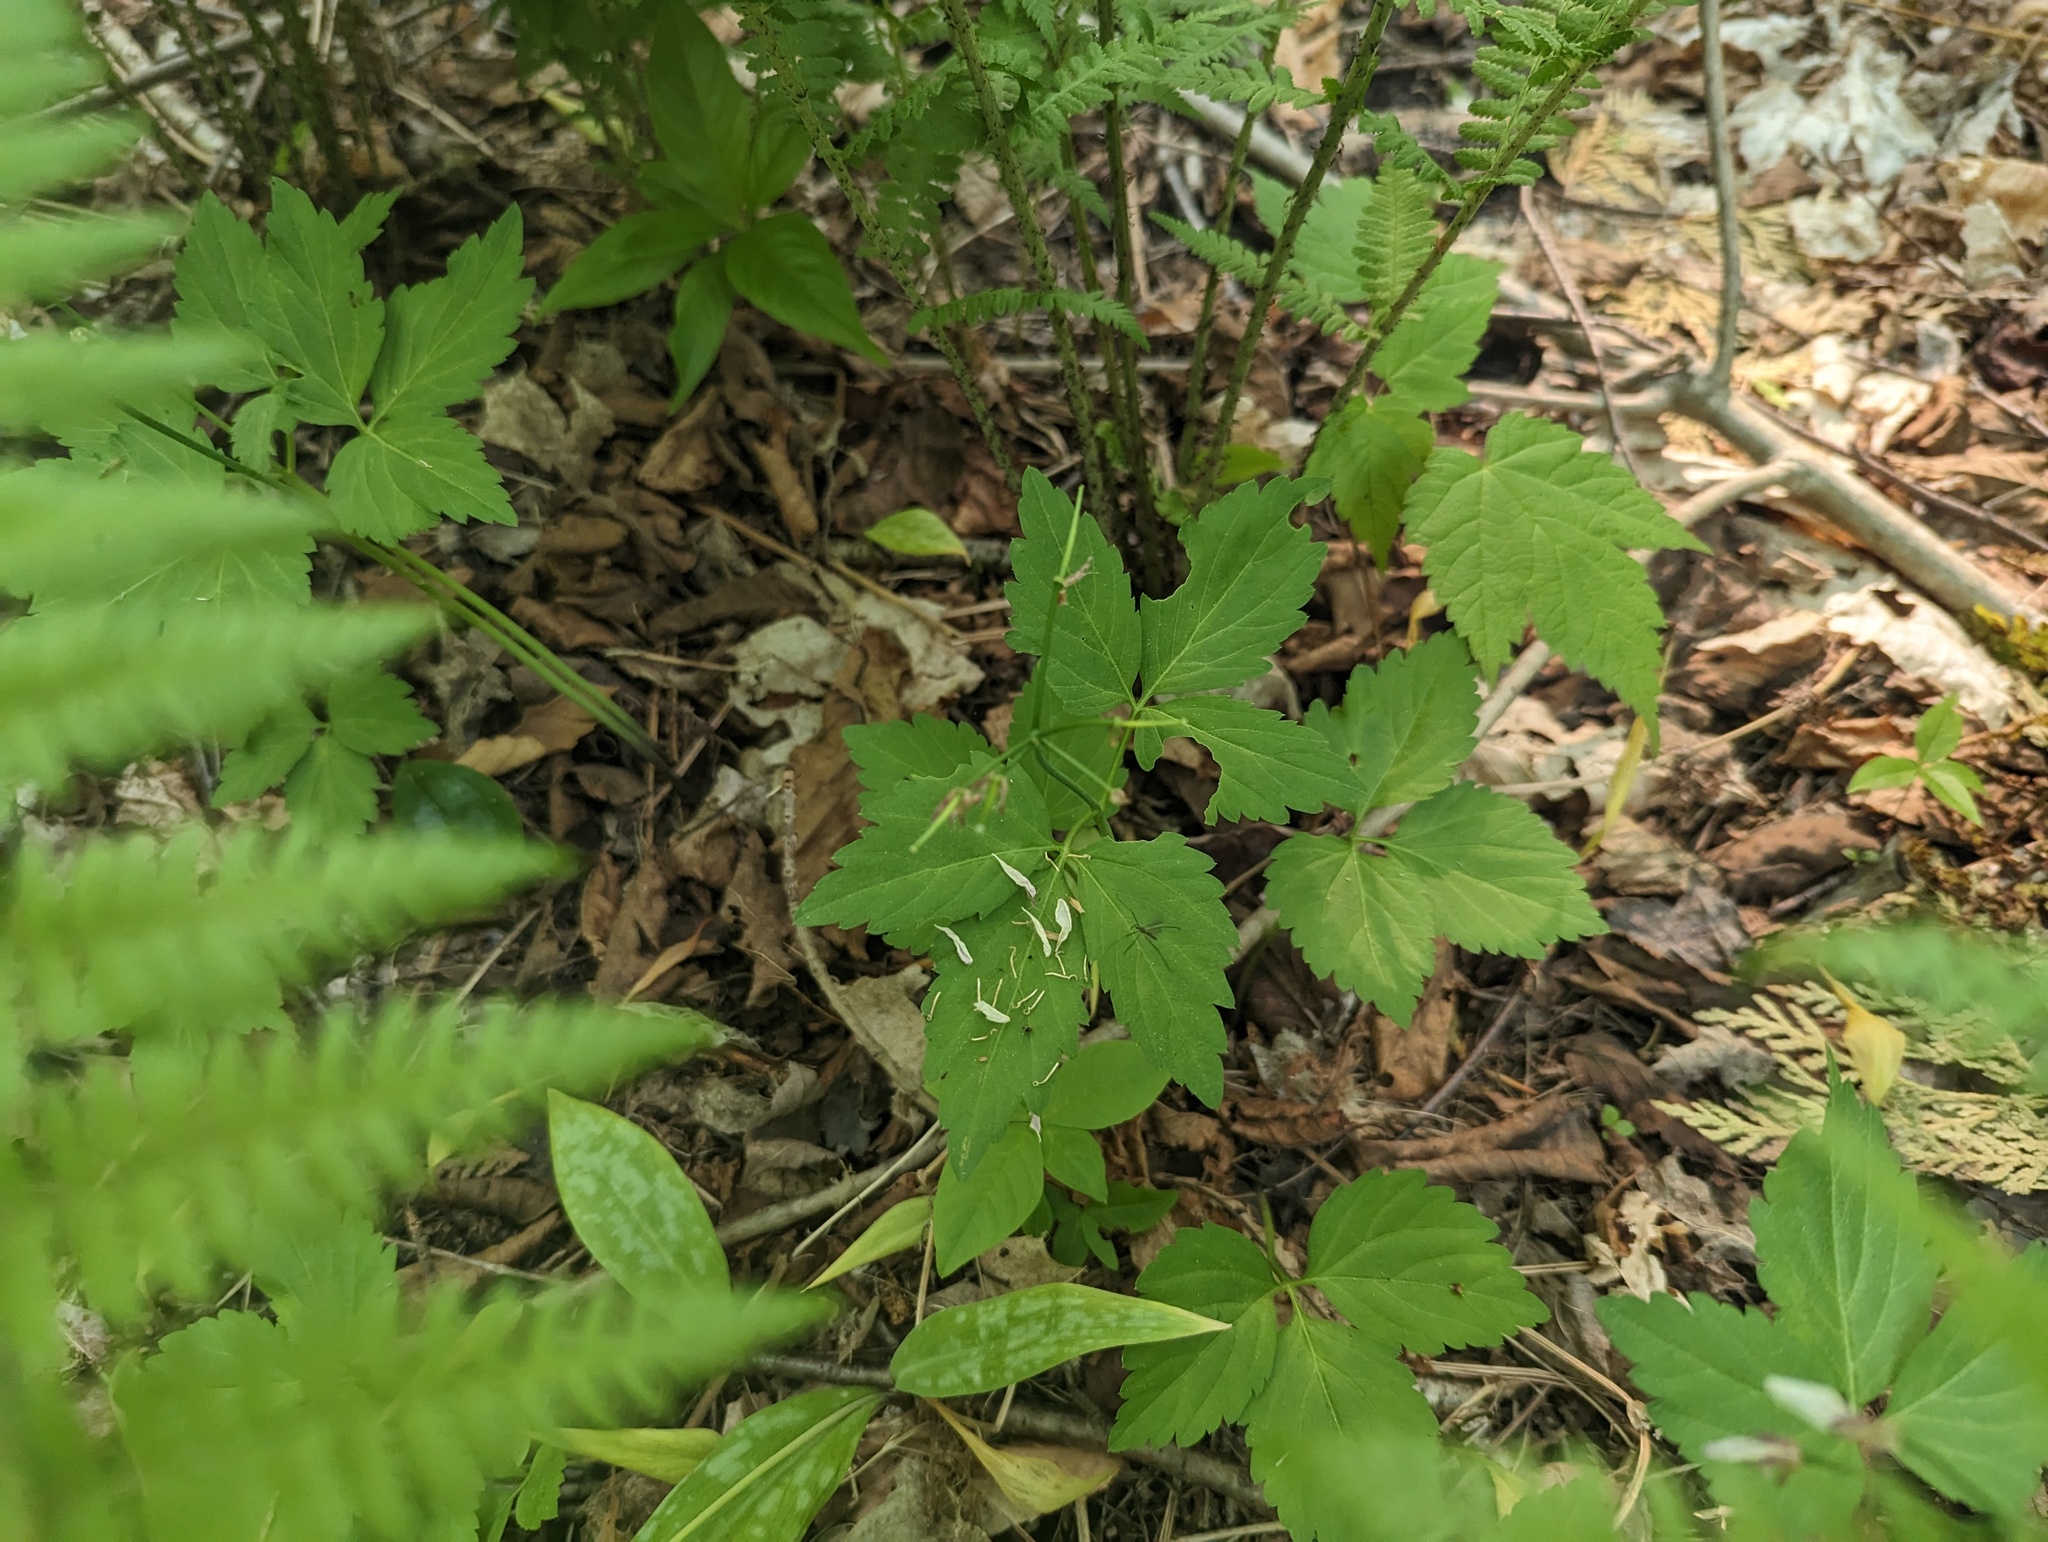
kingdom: Plantae
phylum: Tracheophyta
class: Magnoliopsida
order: Brassicales
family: Brassicaceae
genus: Cardamine
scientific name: Cardamine diphylla
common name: Broad-leaved toothwort
